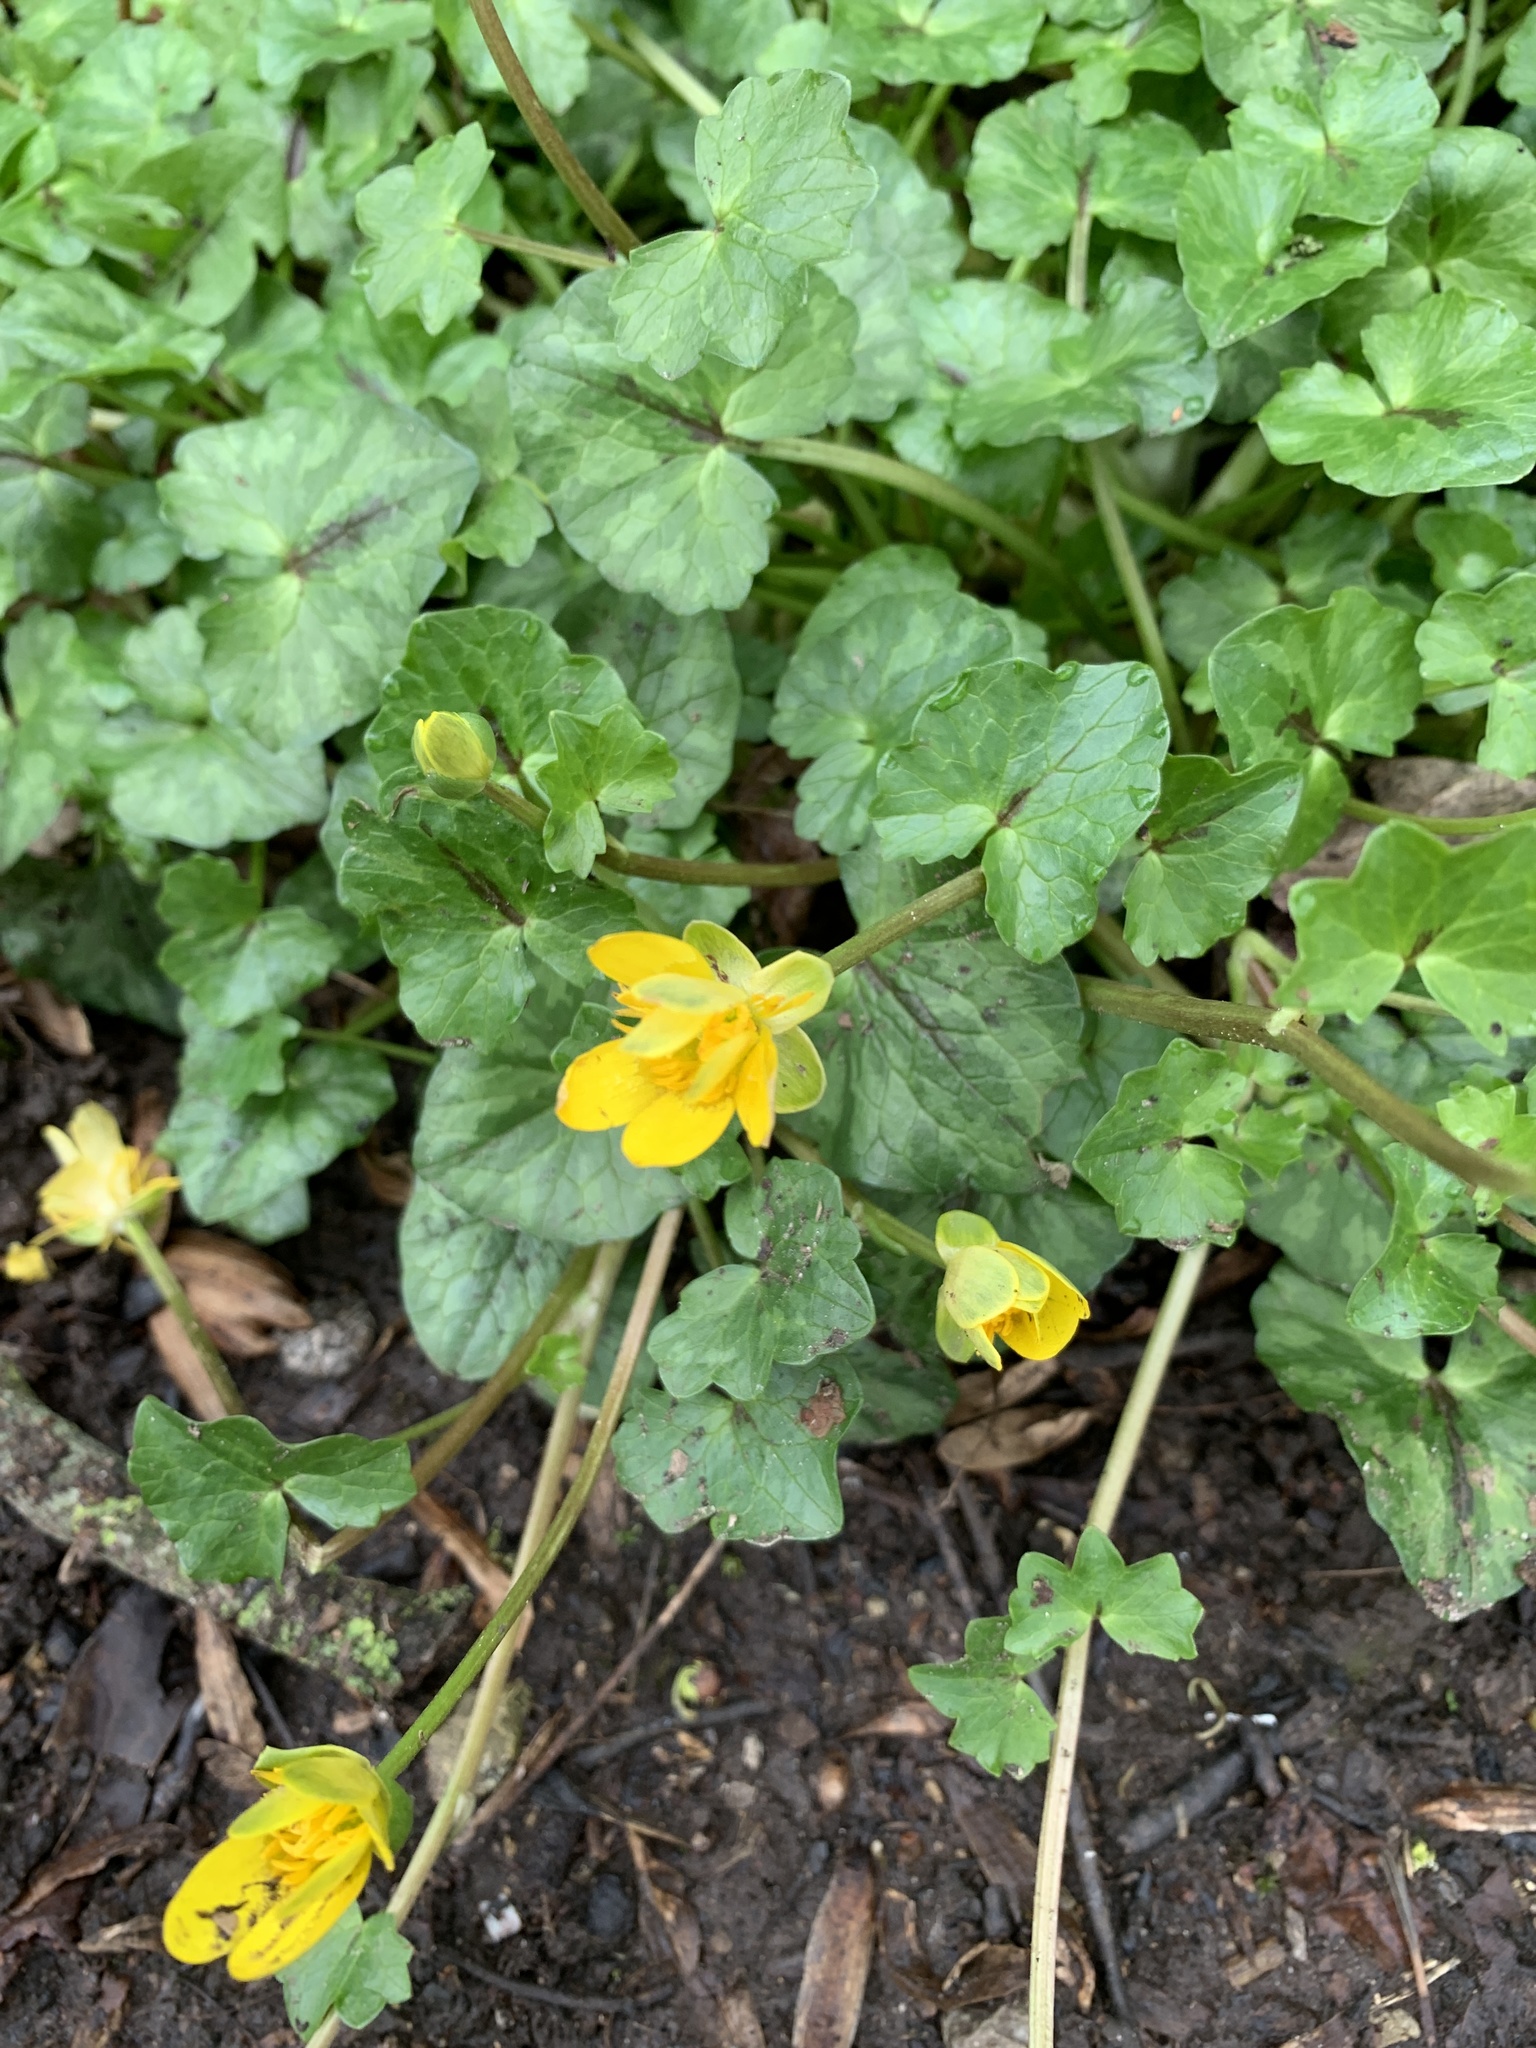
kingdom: Plantae
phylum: Tracheophyta
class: Magnoliopsida
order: Ranunculales
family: Ranunculaceae
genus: Ficaria
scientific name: Ficaria verna
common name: Lesser celandine
